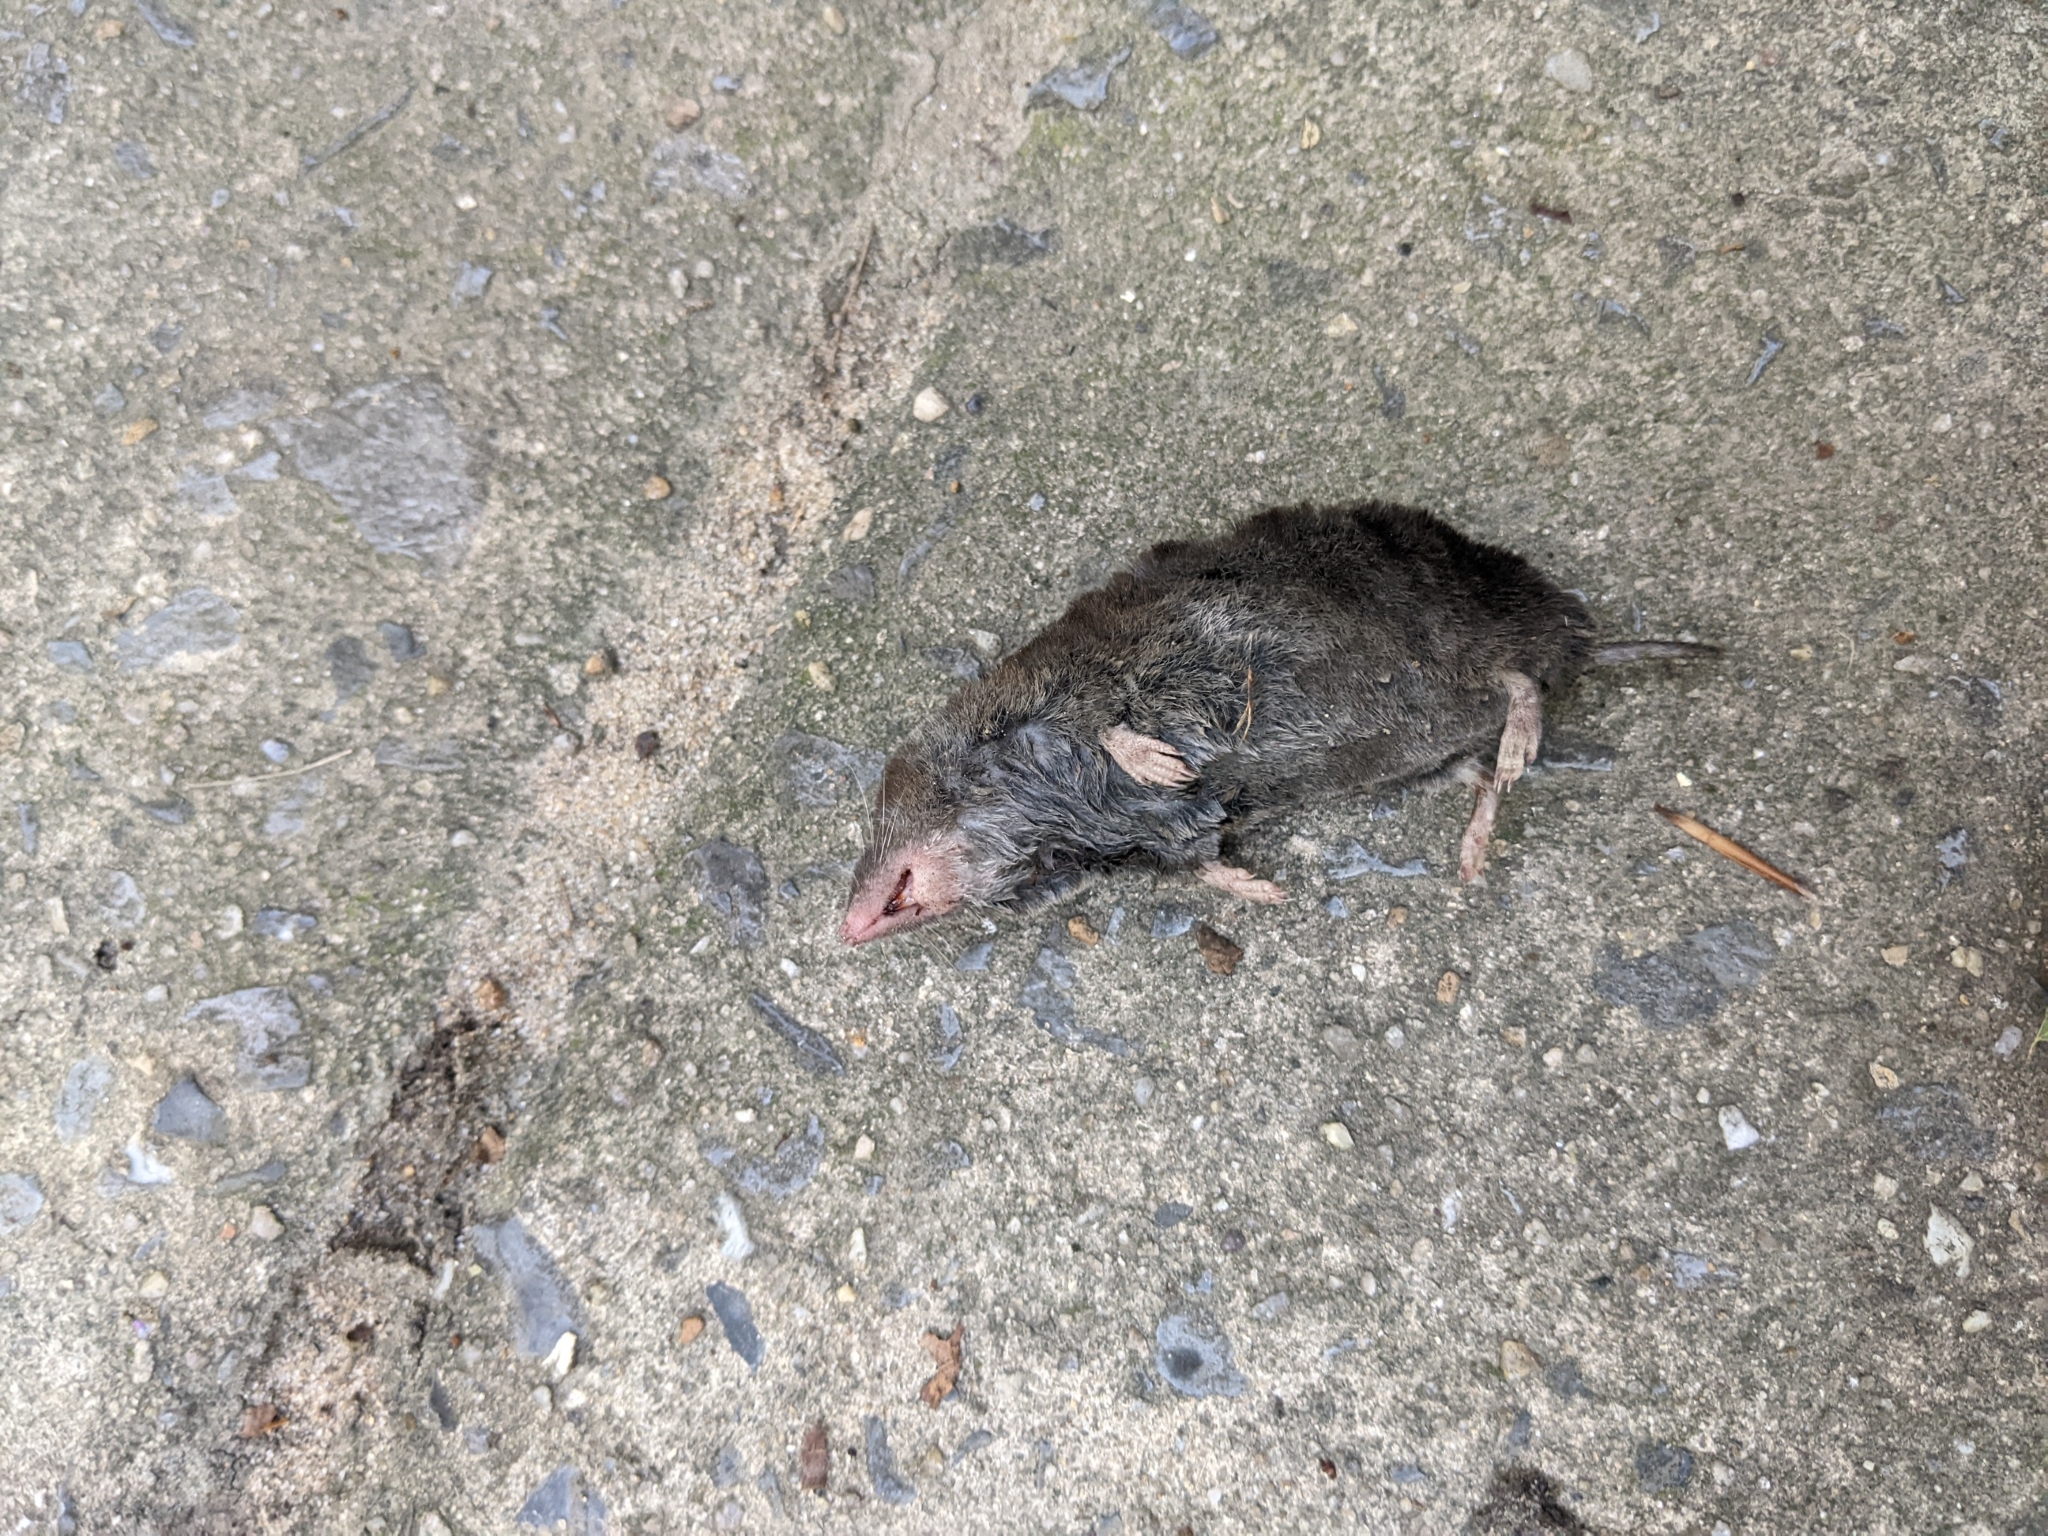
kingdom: Animalia
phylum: Chordata
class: Mammalia
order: Soricomorpha
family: Soricidae
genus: Cryptotis
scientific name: Cryptotis parva
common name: North american least shrew
